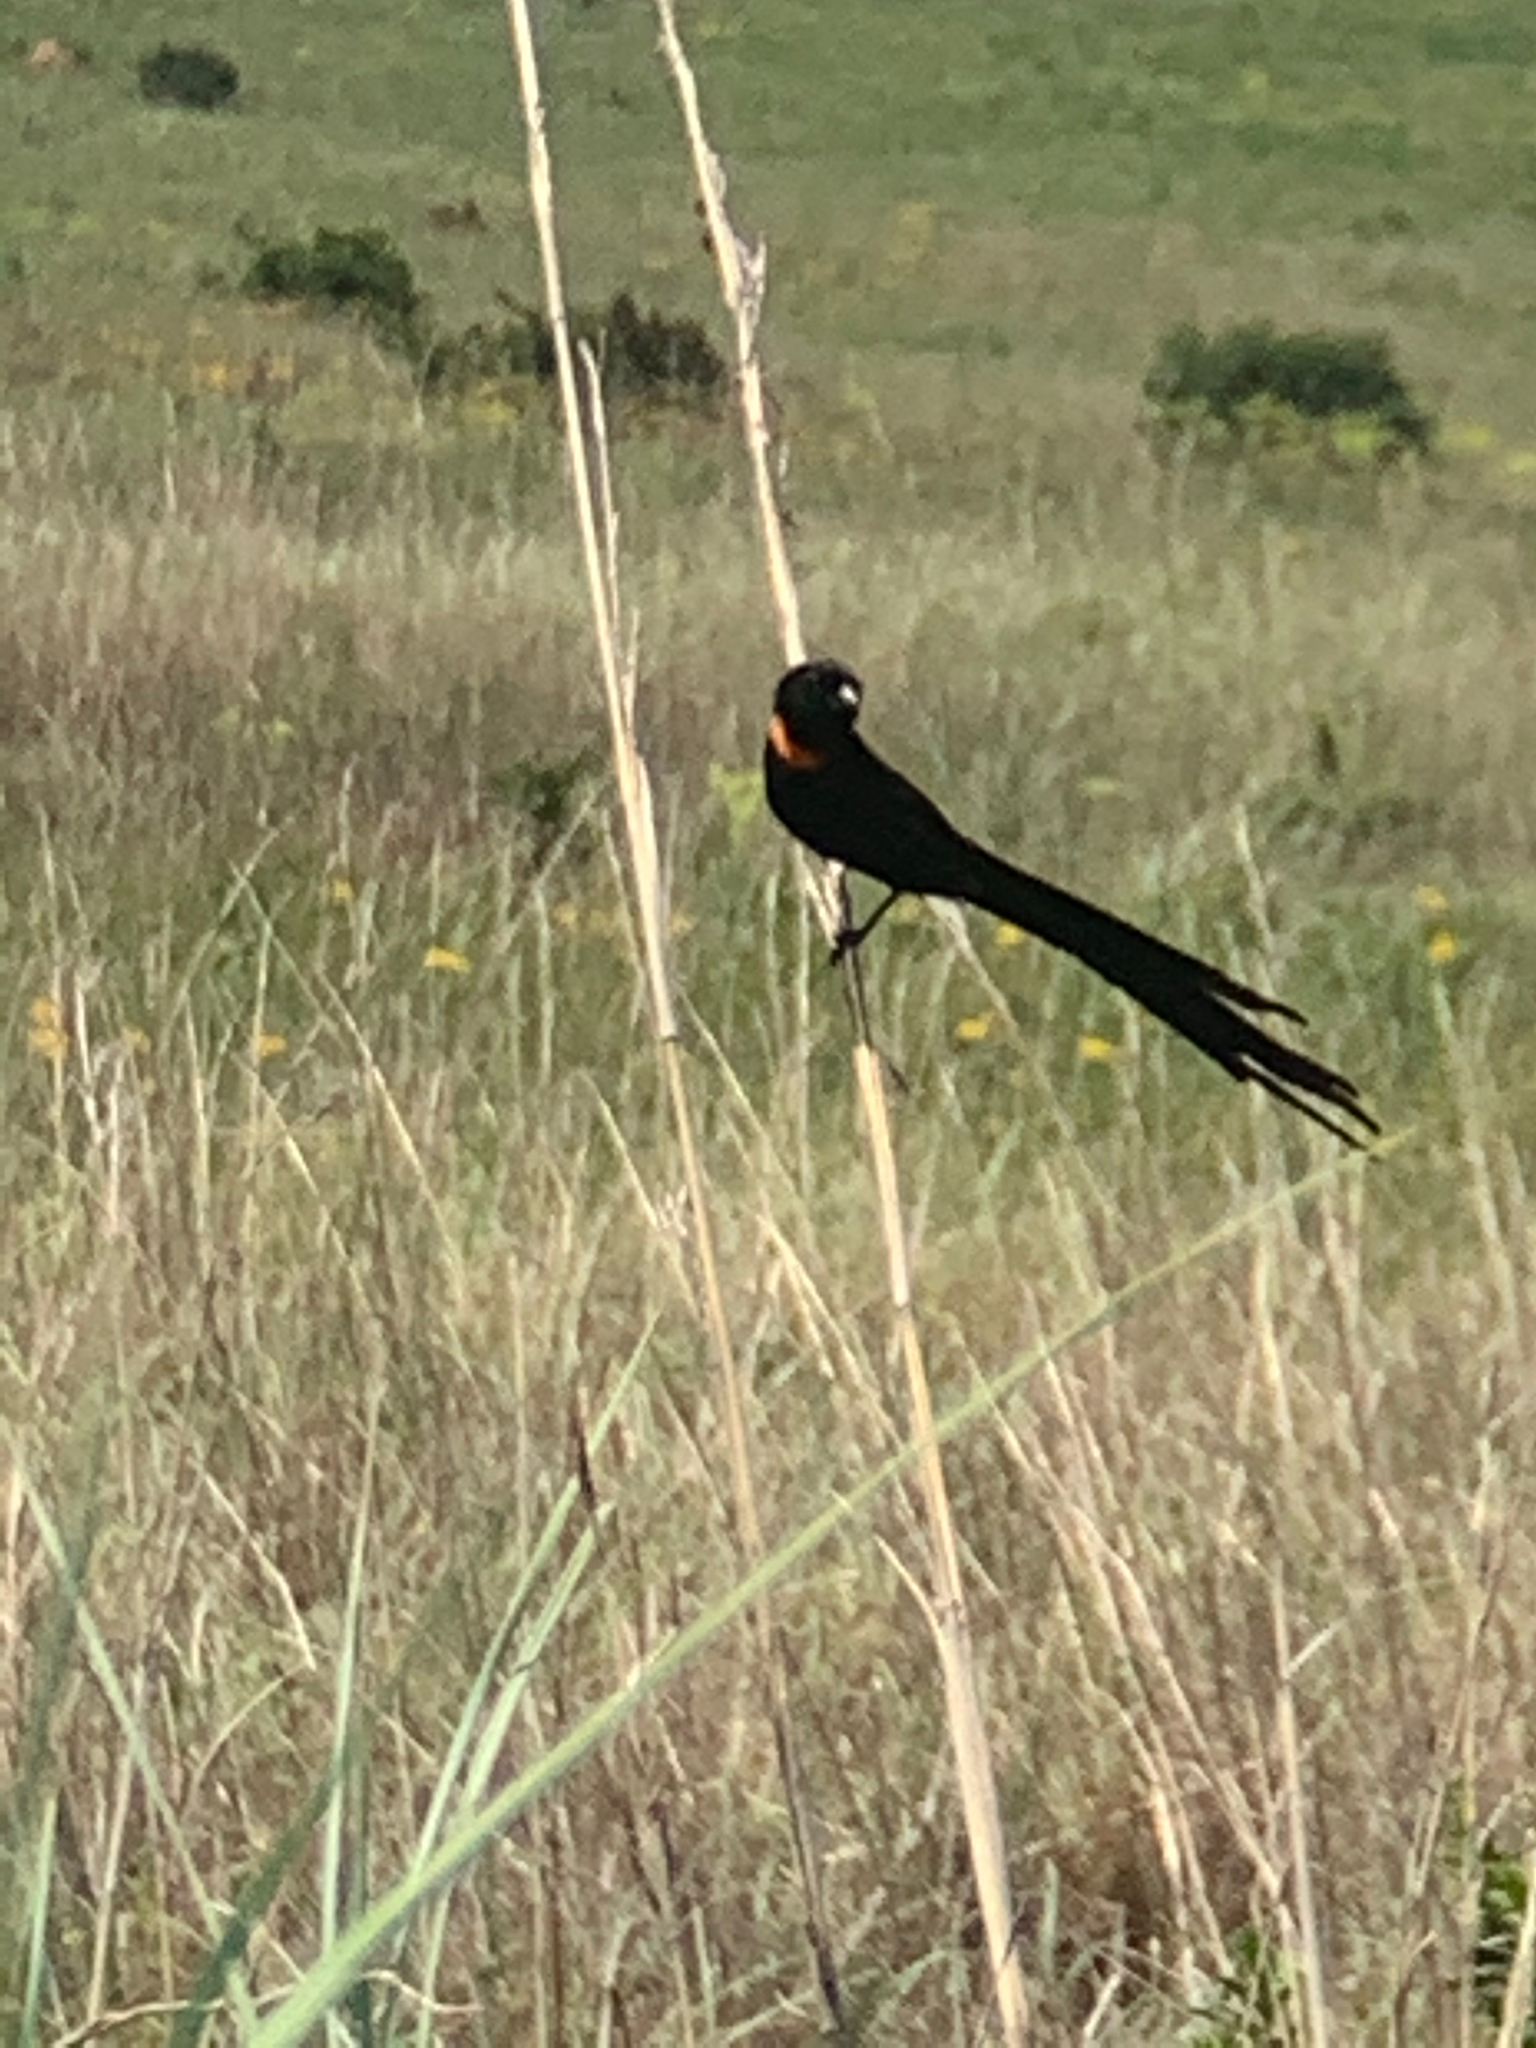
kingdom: Animalia
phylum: Chordata
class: Aves
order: Passeriformes
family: Ploceidae
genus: Euplectes
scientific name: Euplectes ardens
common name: Red-collared widowbird
